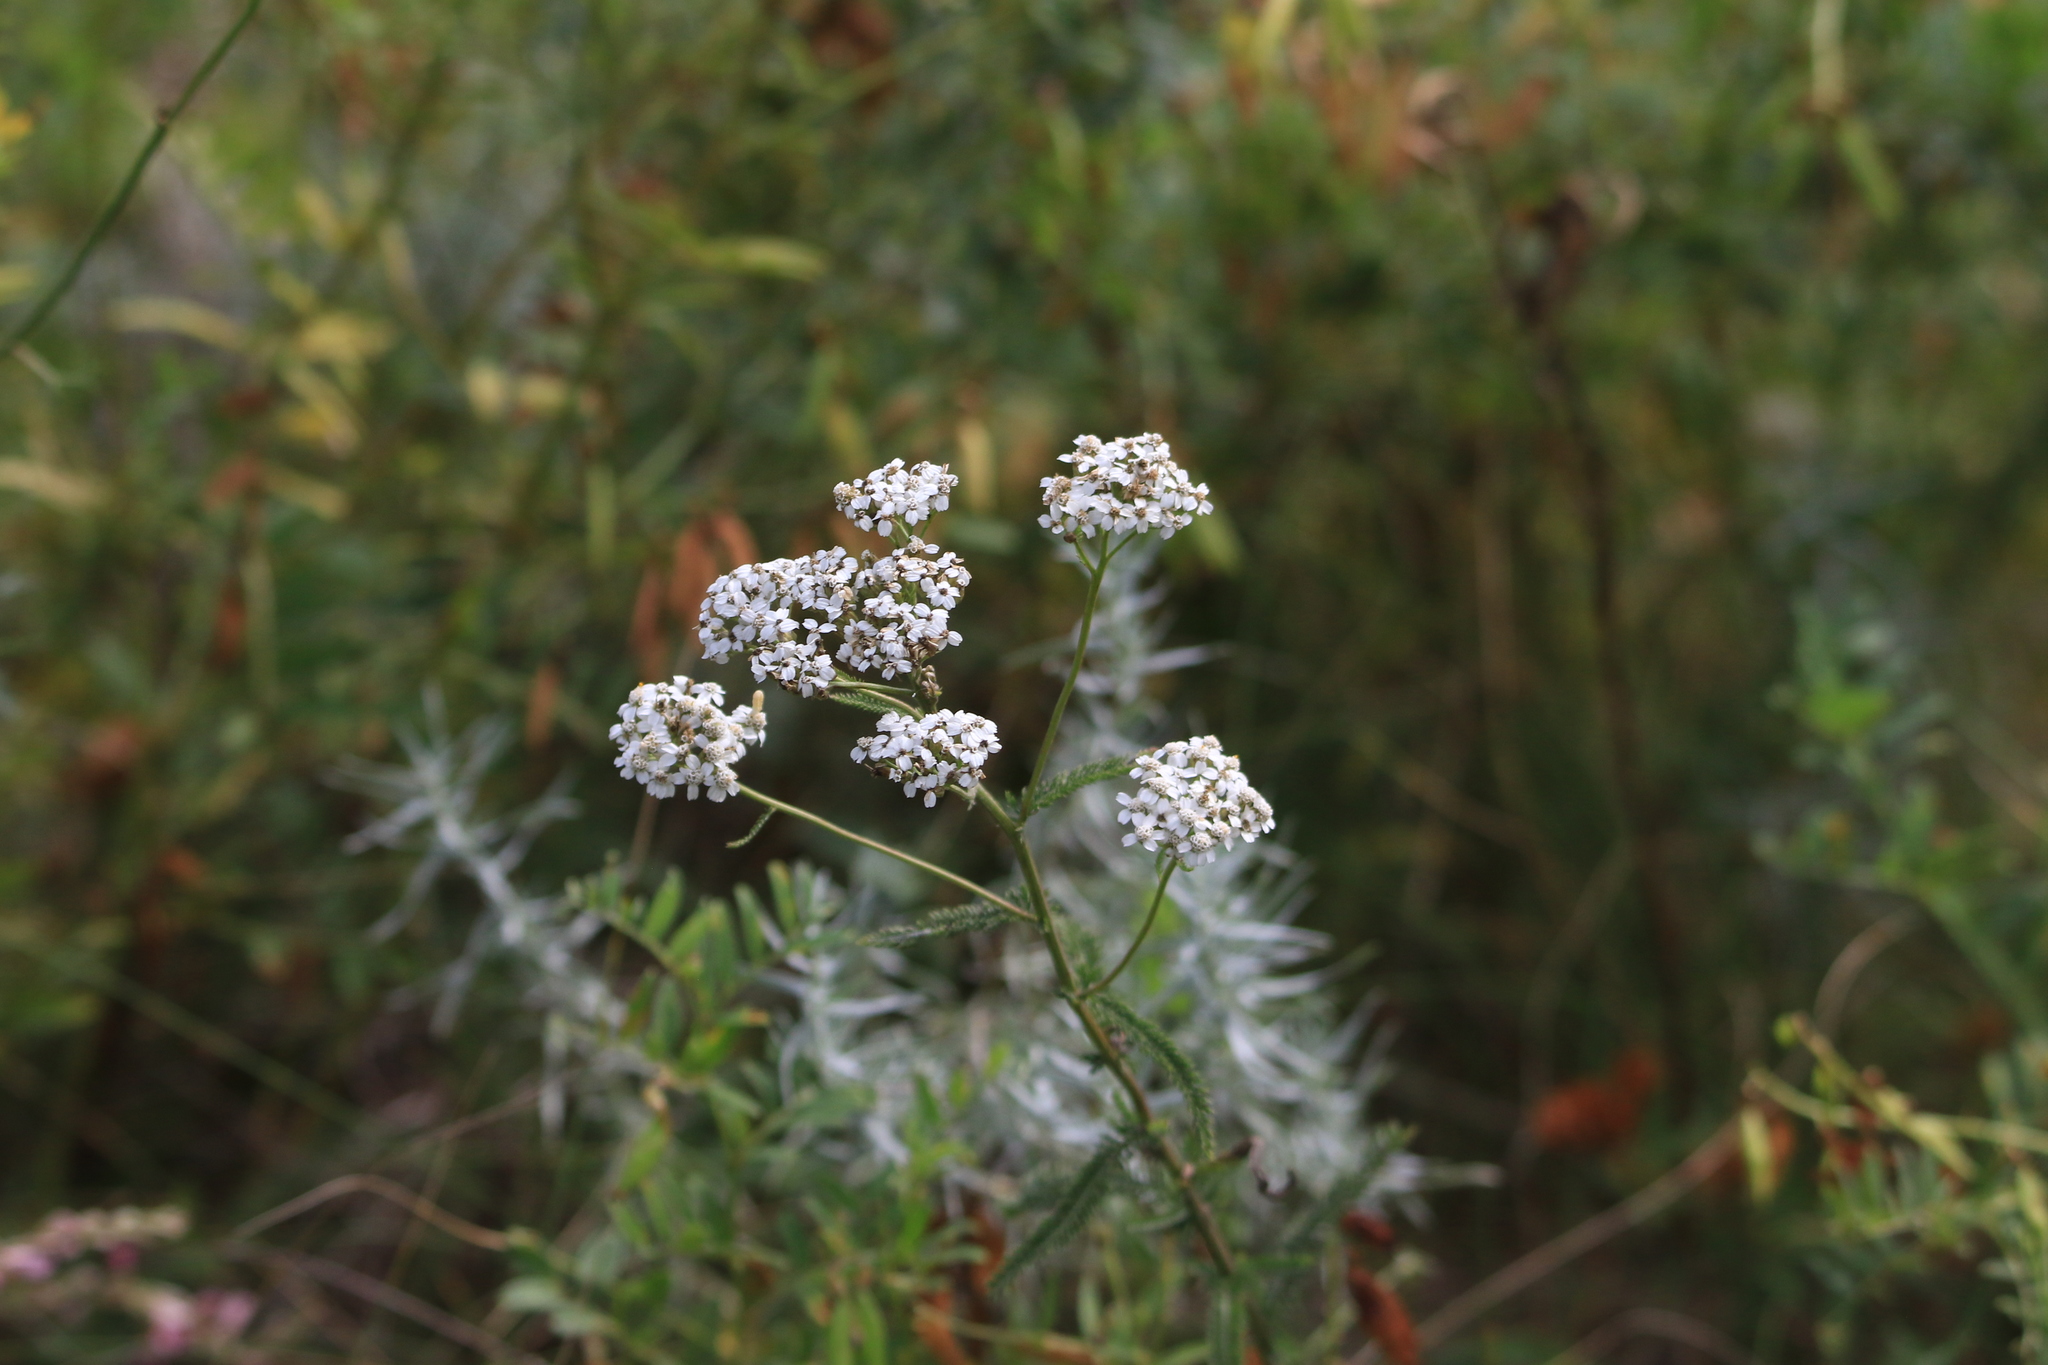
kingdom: Plantae
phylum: Tracheophyta
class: Magnoliopsida
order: Asterales
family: Asteraceae
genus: Achillea
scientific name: Achillea millefolium
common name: Yarrow
